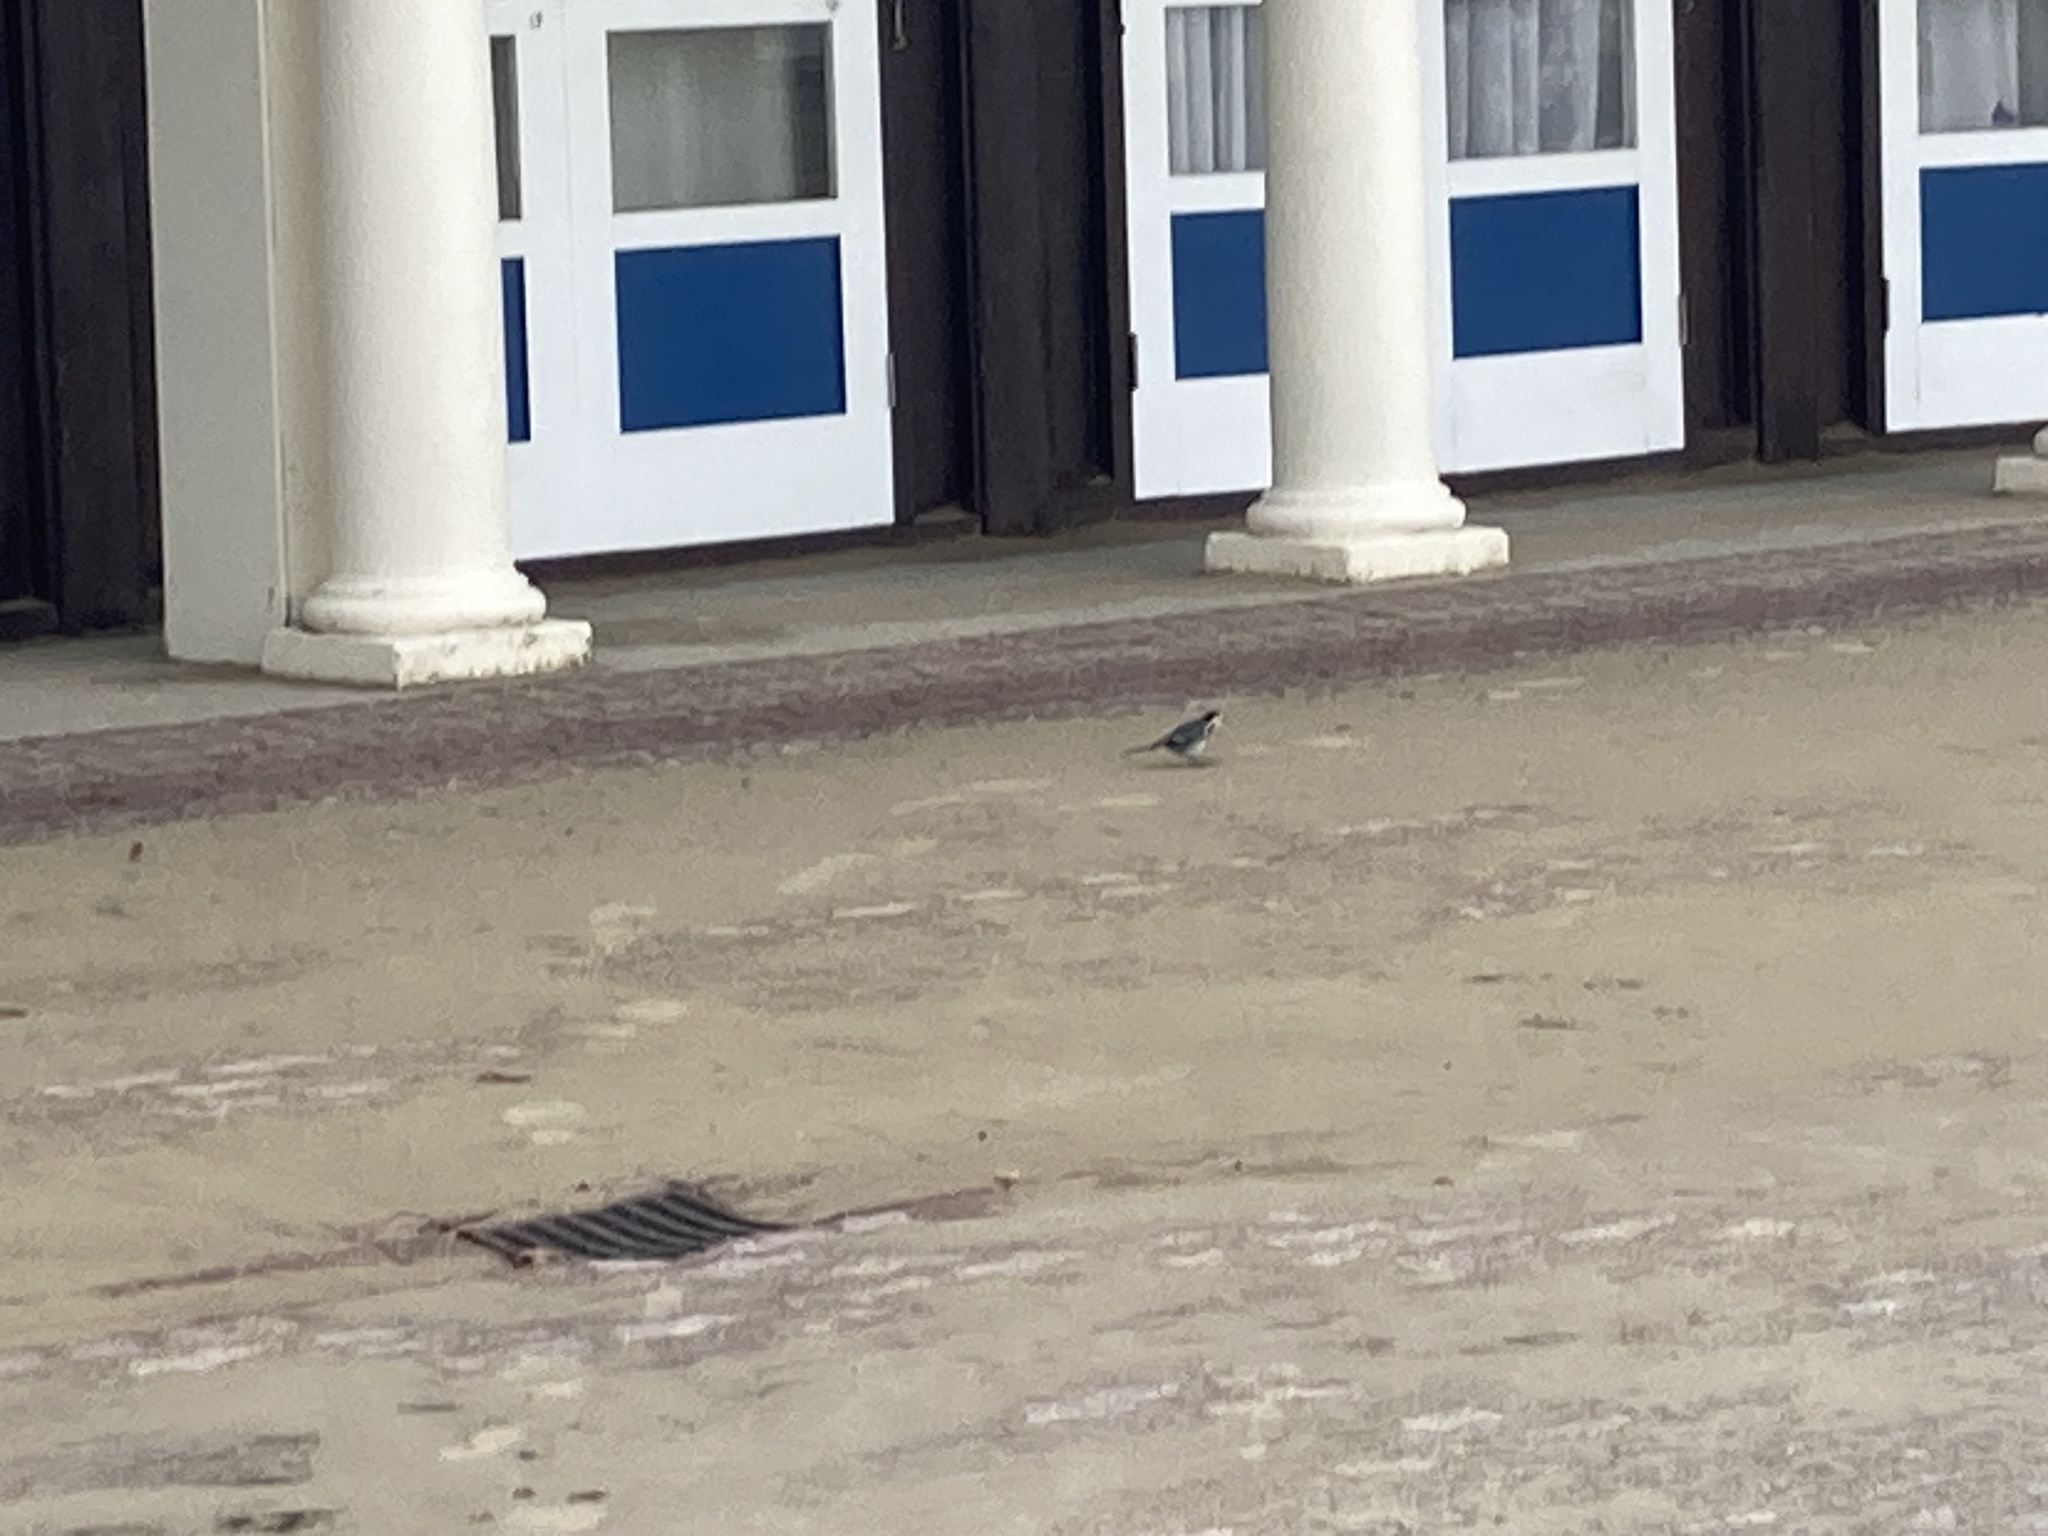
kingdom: Animalia
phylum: Chordata
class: Aves
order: Passeriformes
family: Motacillidae
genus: Motacilla
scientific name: Motacilla alba
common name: White wagtail
